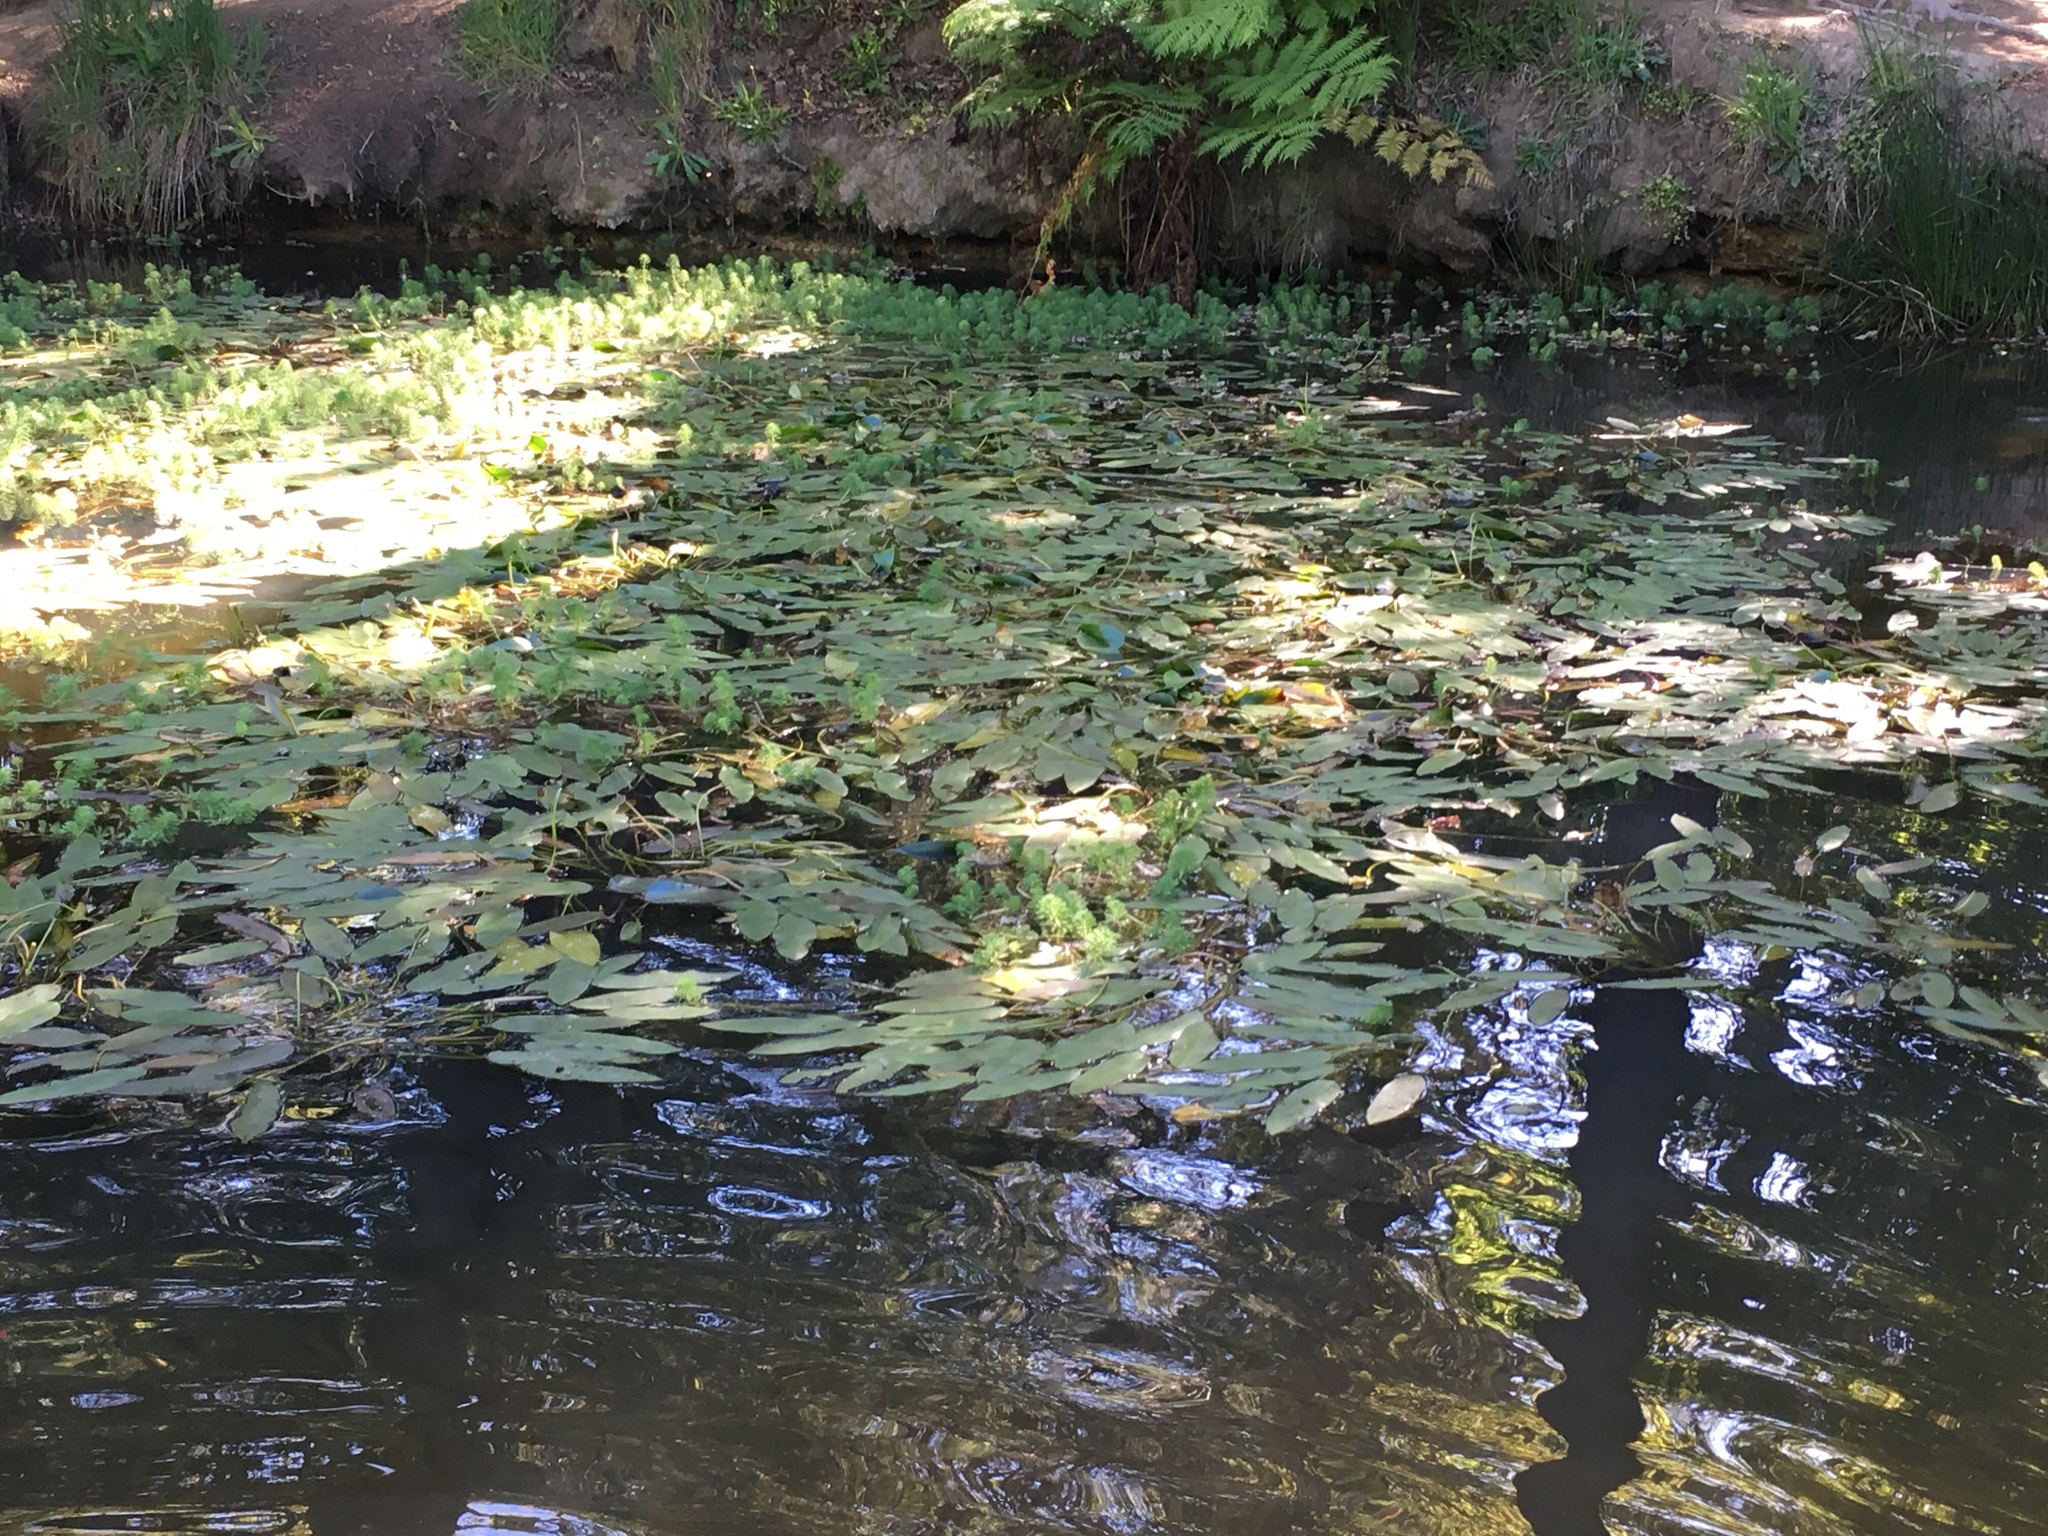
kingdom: Plantae
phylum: Tracheophyta
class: Liliopsida
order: Alismatales
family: Aponogetonaceae
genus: Aponogeton
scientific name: Aponogeton distachyos
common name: Cape-pondweed
